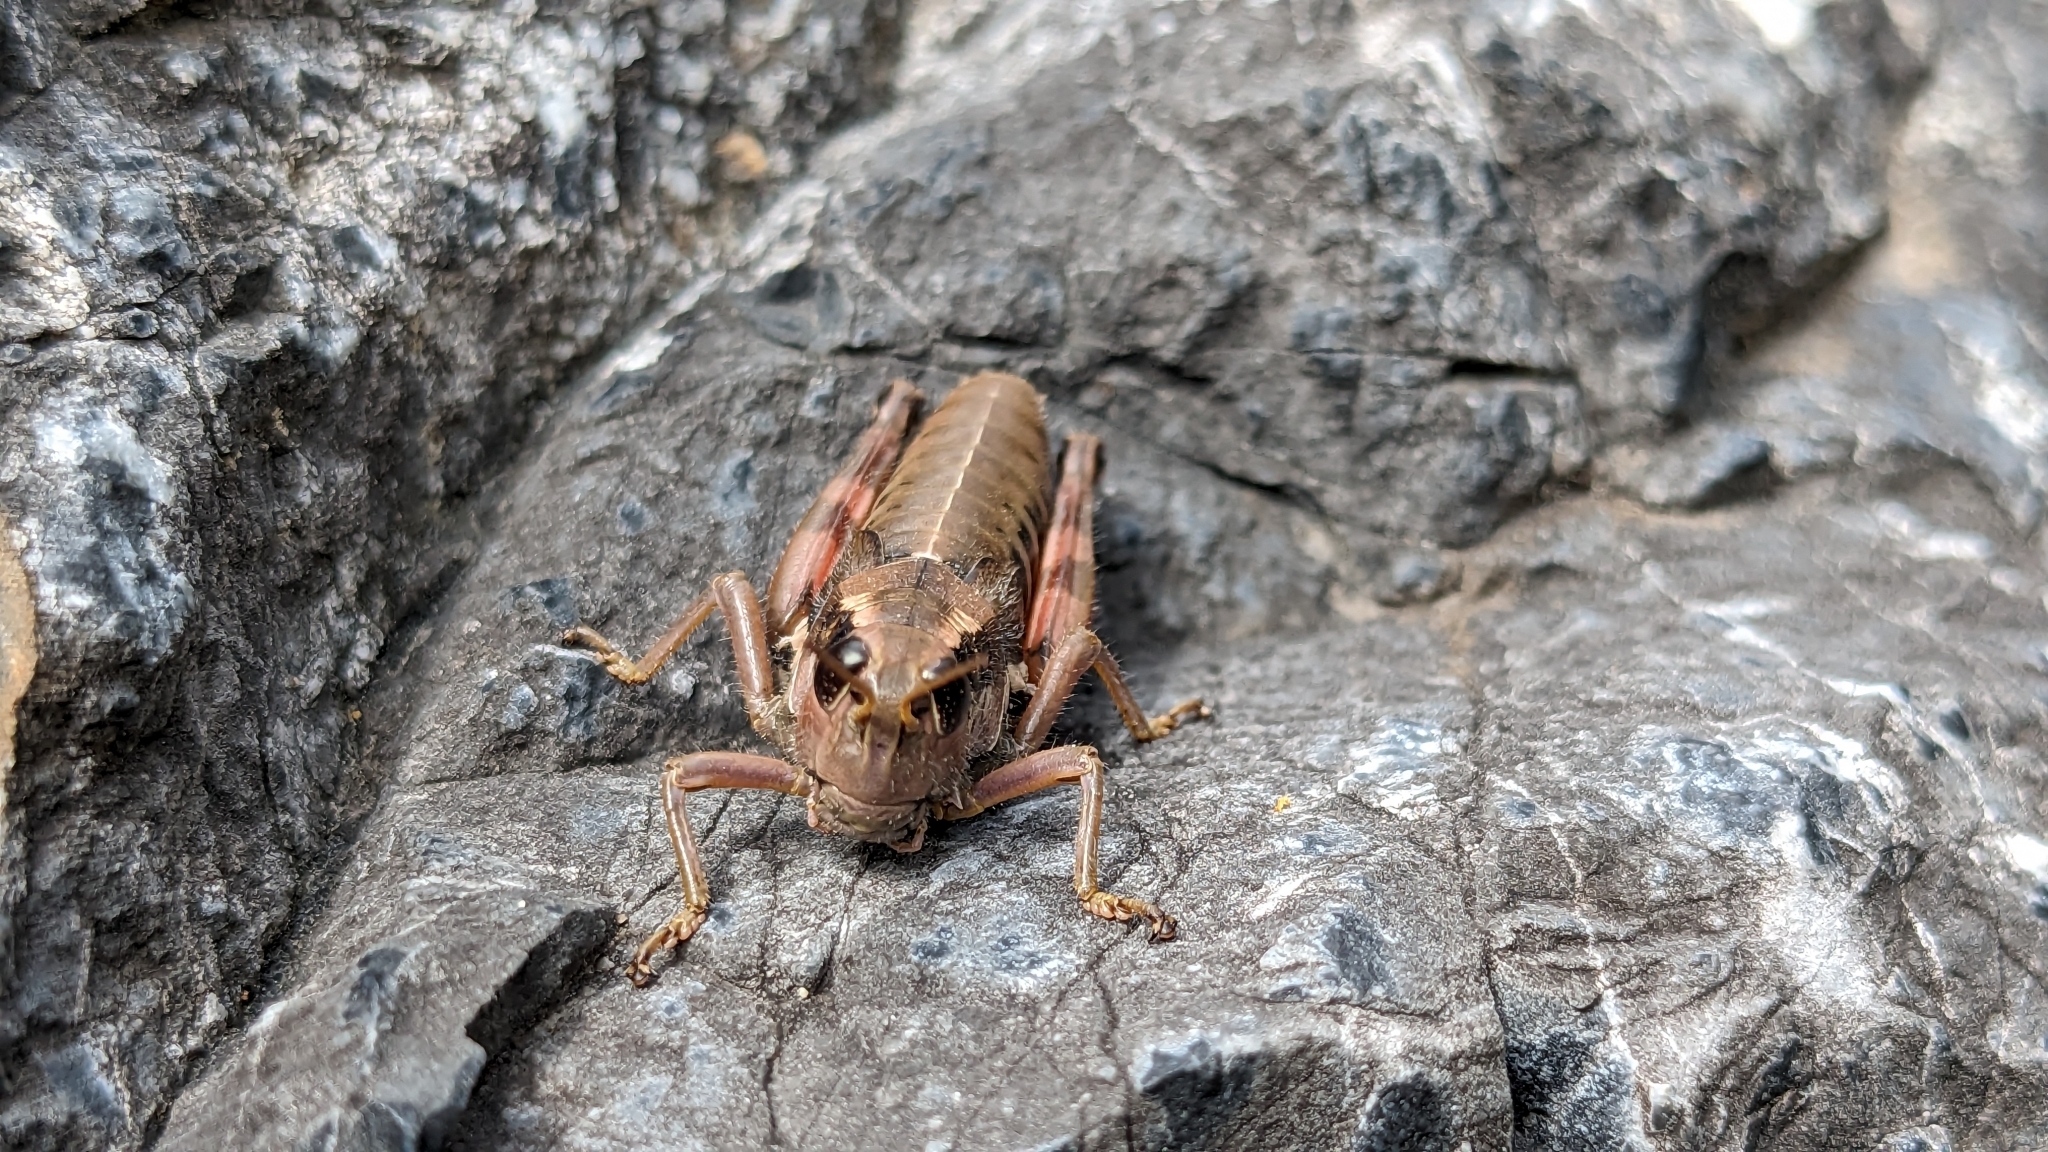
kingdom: Animalia
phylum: Arthropoda
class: Insecta
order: Orthoptera
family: Acrididae
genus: Podisma
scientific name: Podisma pedestris
